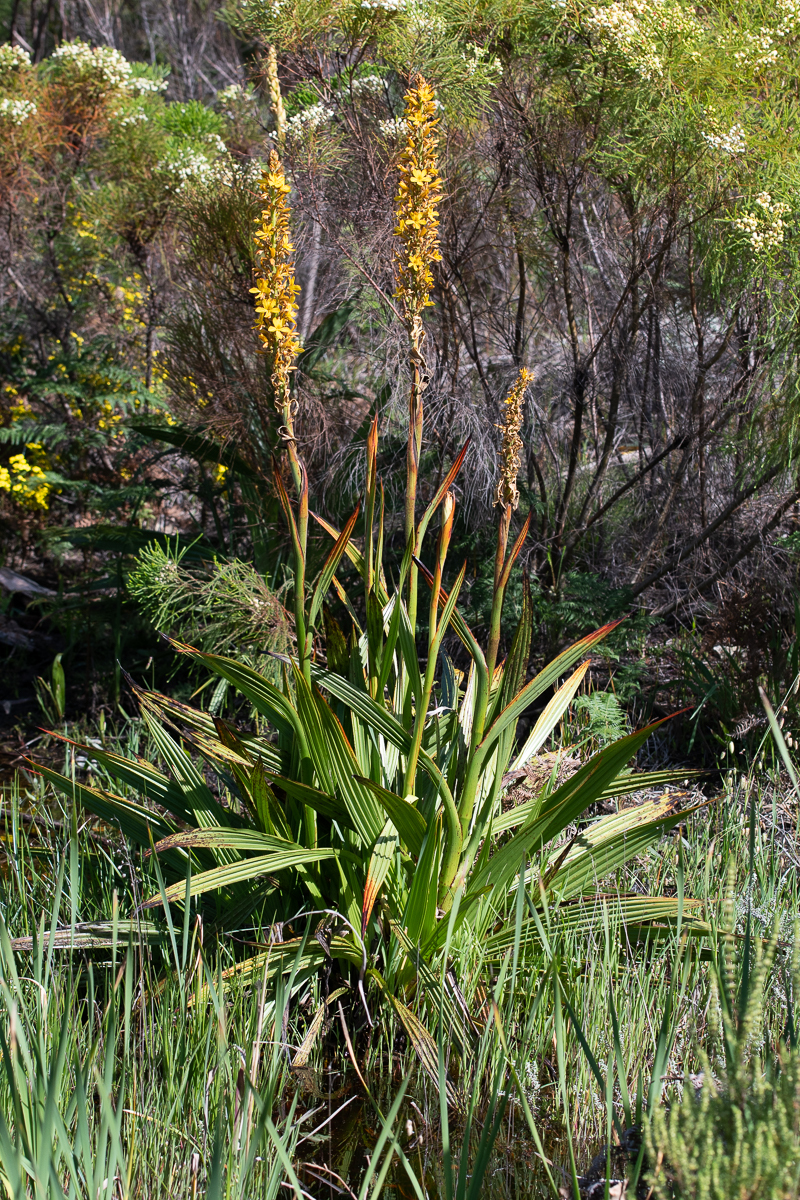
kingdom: Plantae
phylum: Tracheophyta
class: Liliopsida
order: Commelinales
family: Haemodoraceae
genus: Wachendorfia
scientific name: Wachendorfia thyrsiflora
